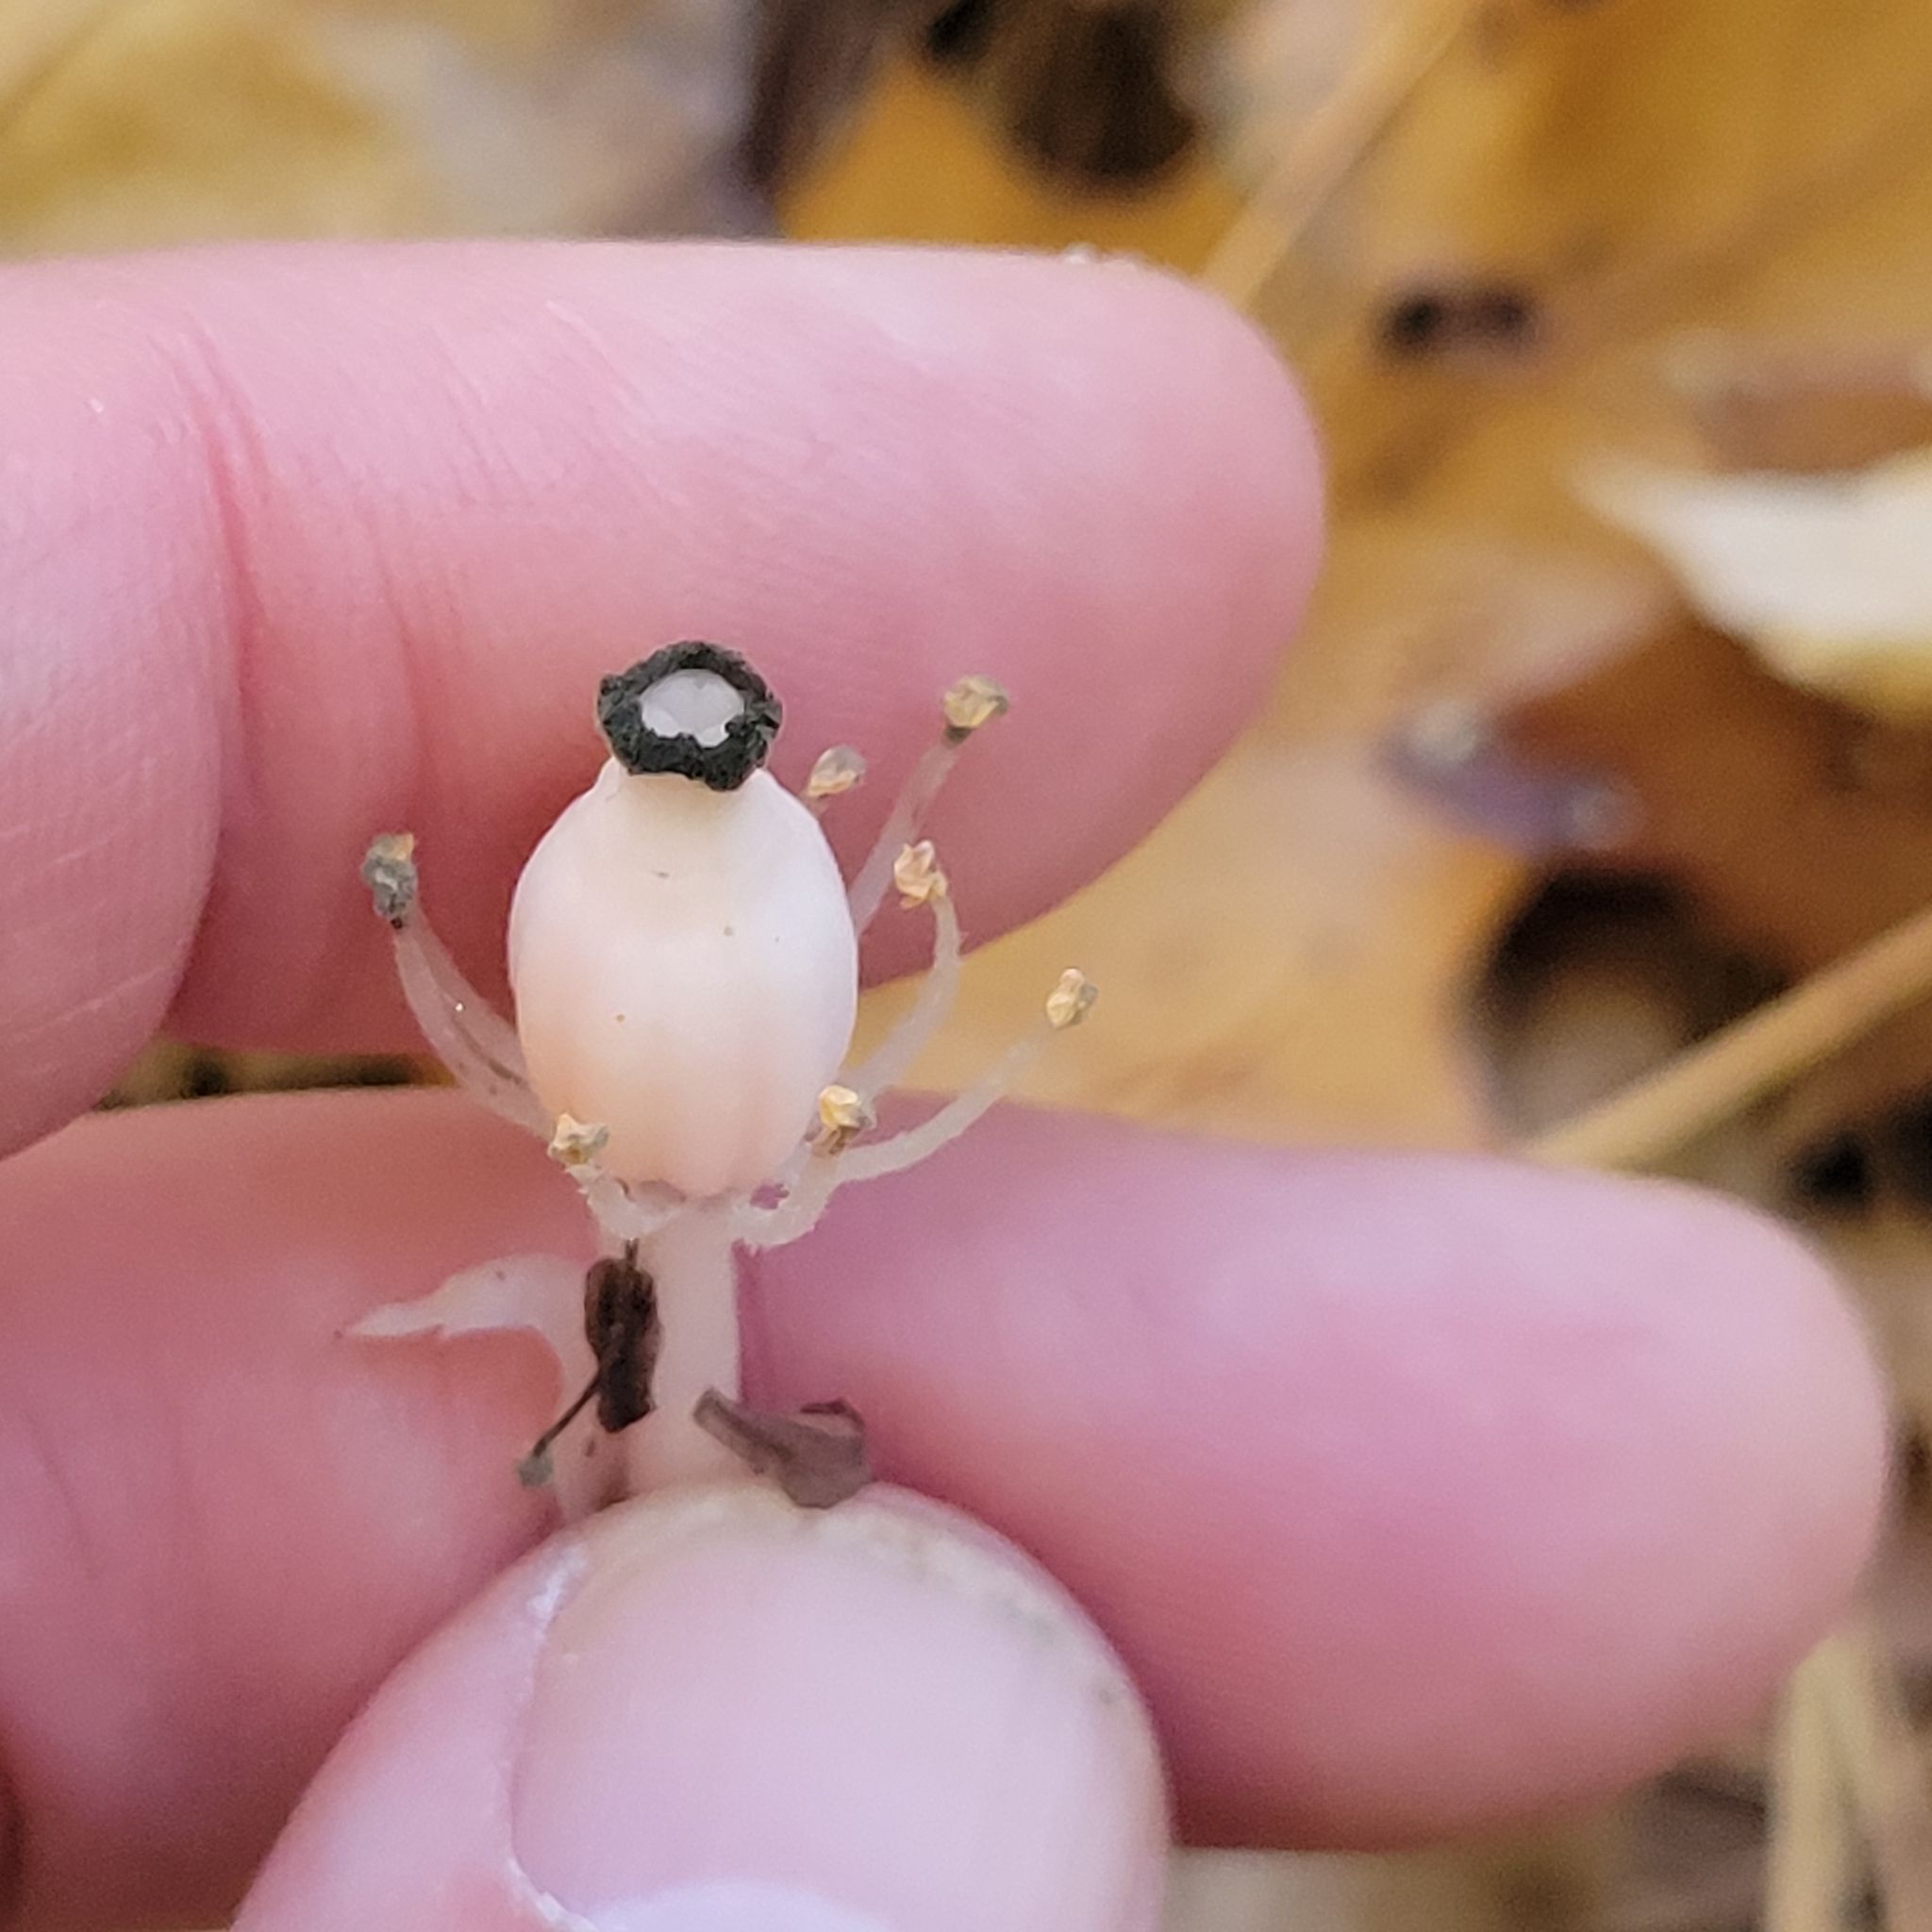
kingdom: Plantae
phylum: Tracheophyta
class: Magnoliopsida
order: Ericales
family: Ericaceae
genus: Monotropa
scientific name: Monotropa uniflora
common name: Convulsion root
